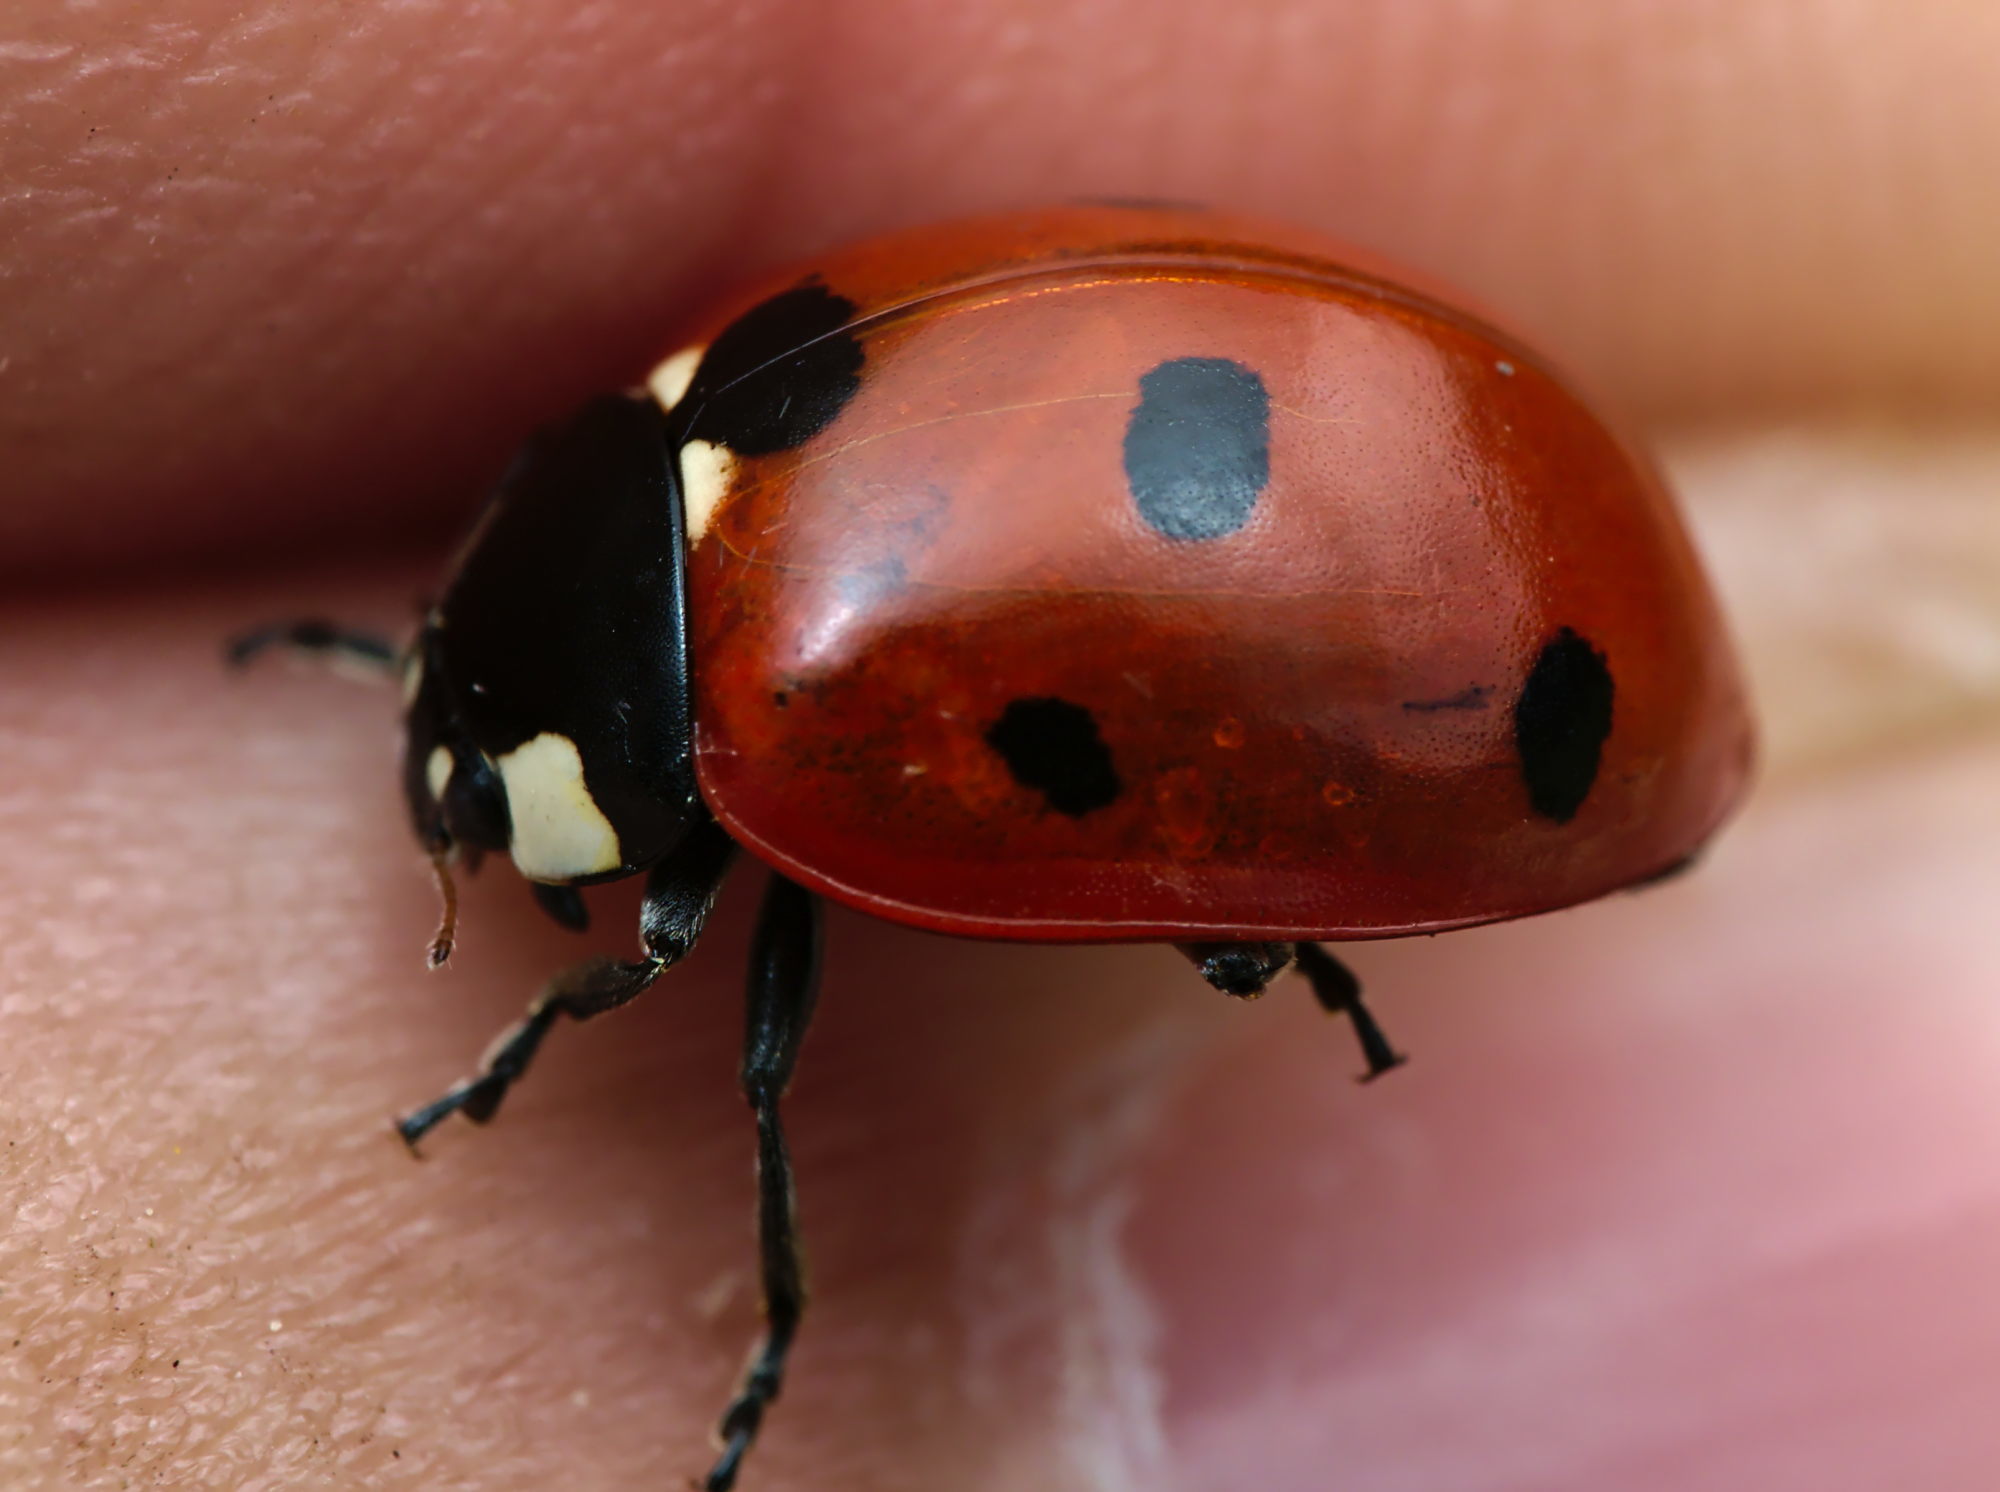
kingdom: Animalia
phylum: Arthropoda
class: Insecta
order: Coleoptera
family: Coccinellidae
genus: Coccinella
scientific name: Coccinella septempunctata
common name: Sevenspotted lady beetle
